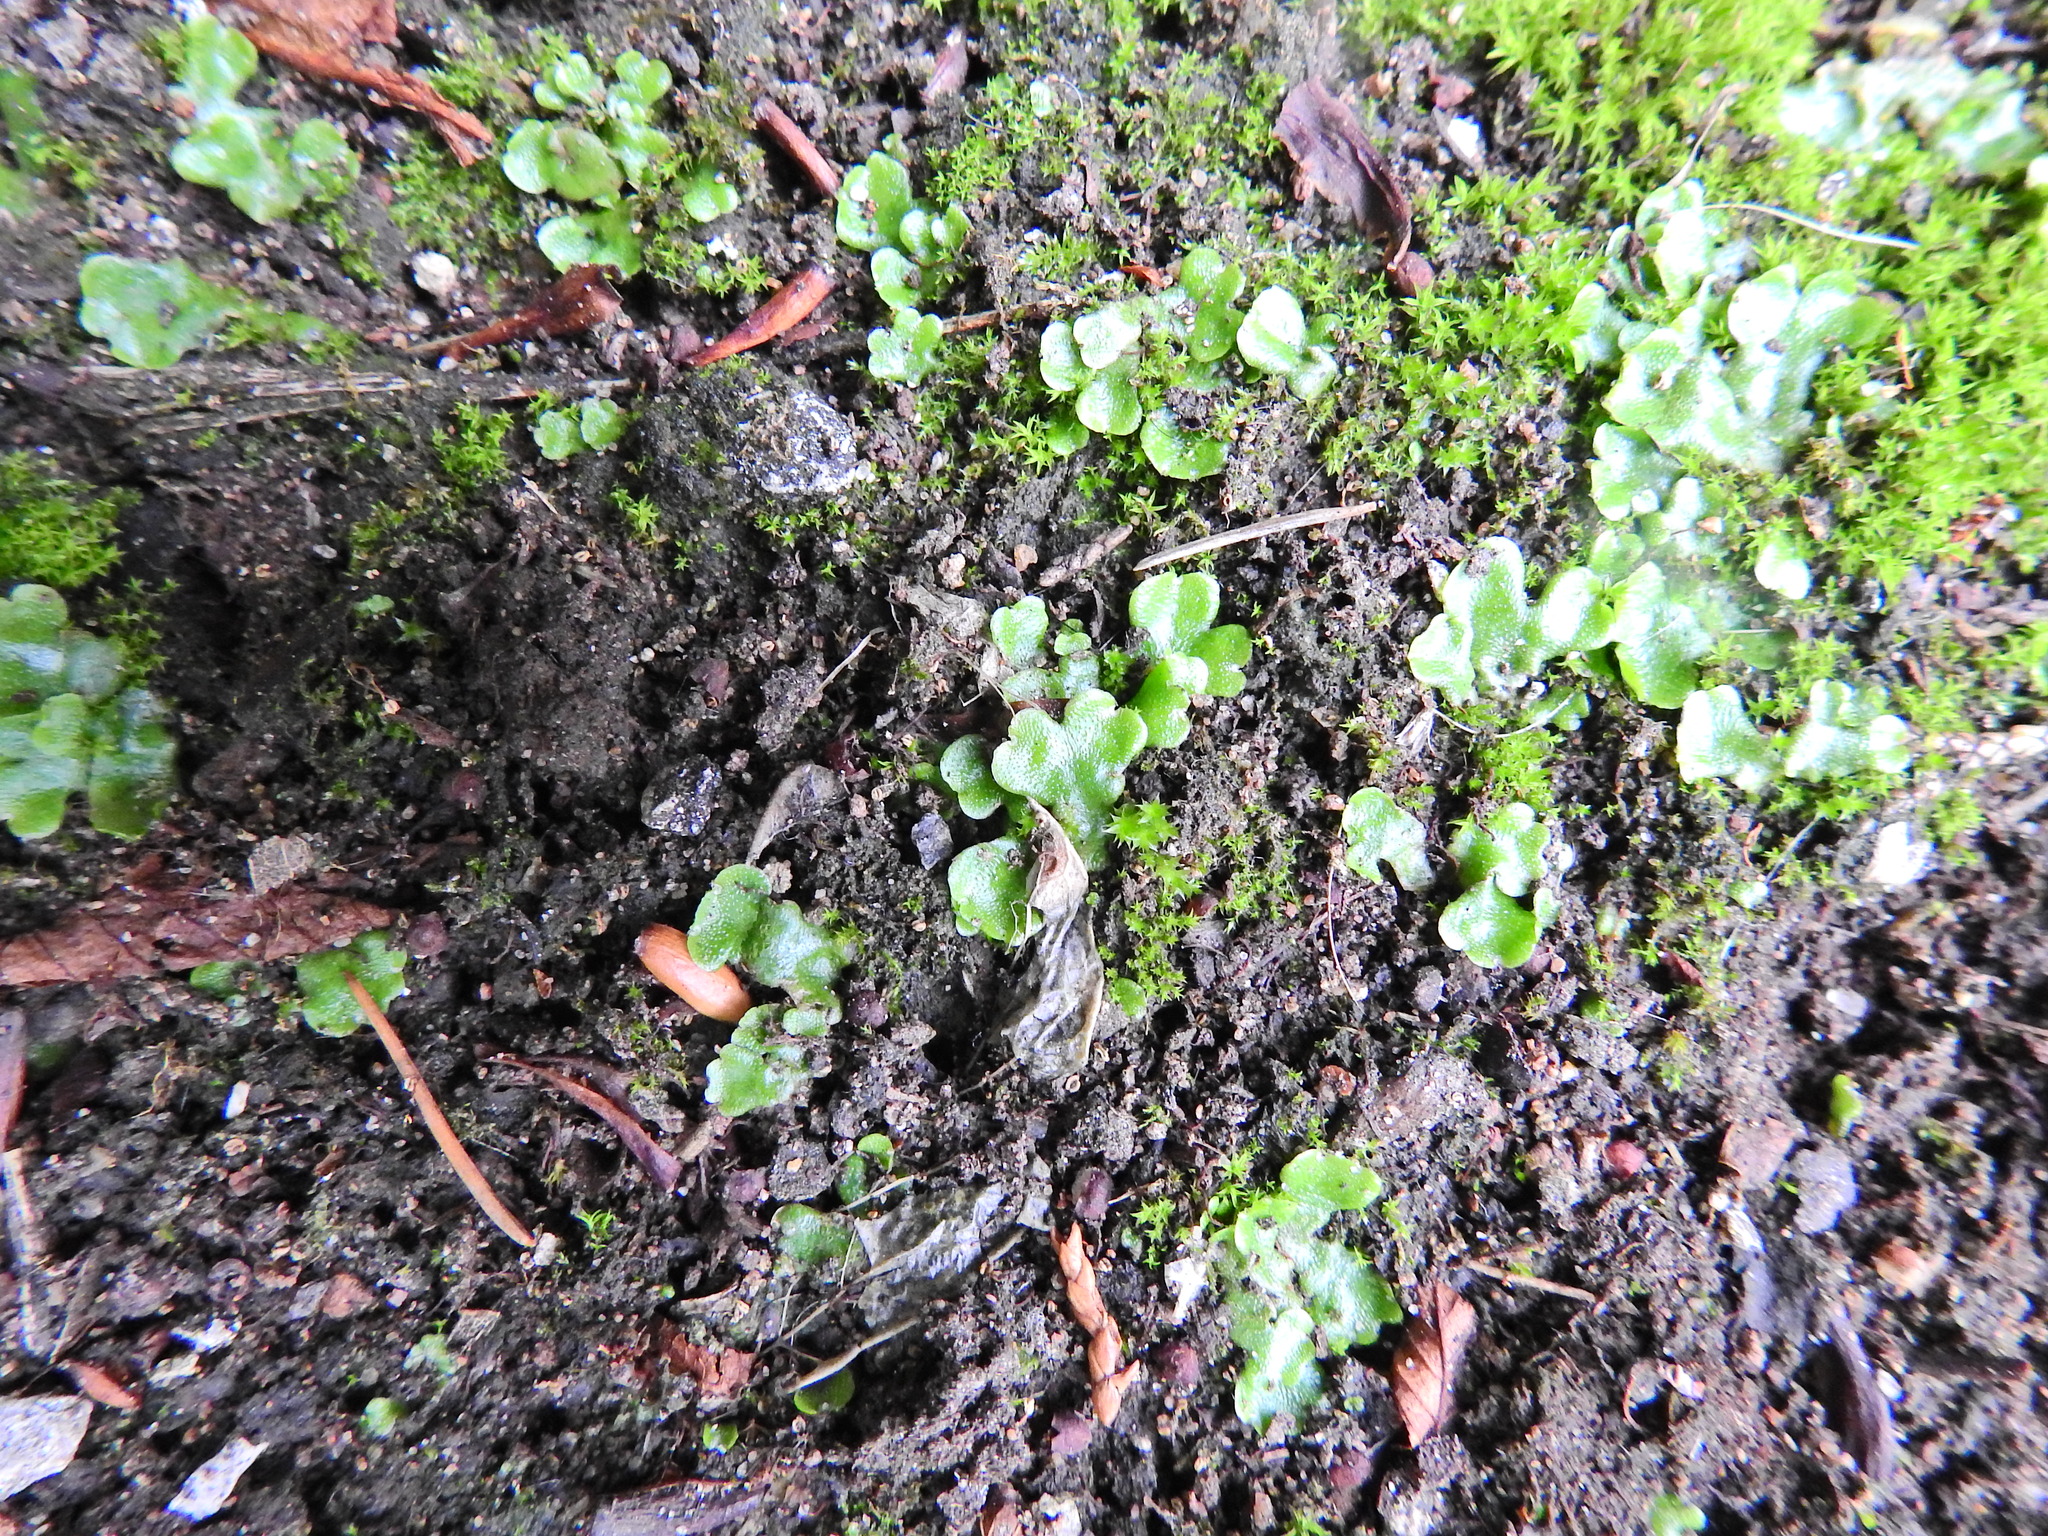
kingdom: Plantae
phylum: Marchantiophyta
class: Marchantiopsida
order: Lunulariales
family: Lunulariaceae
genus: Lunularia
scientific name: Lunularia cruciata
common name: Crescent-cup liverwort
